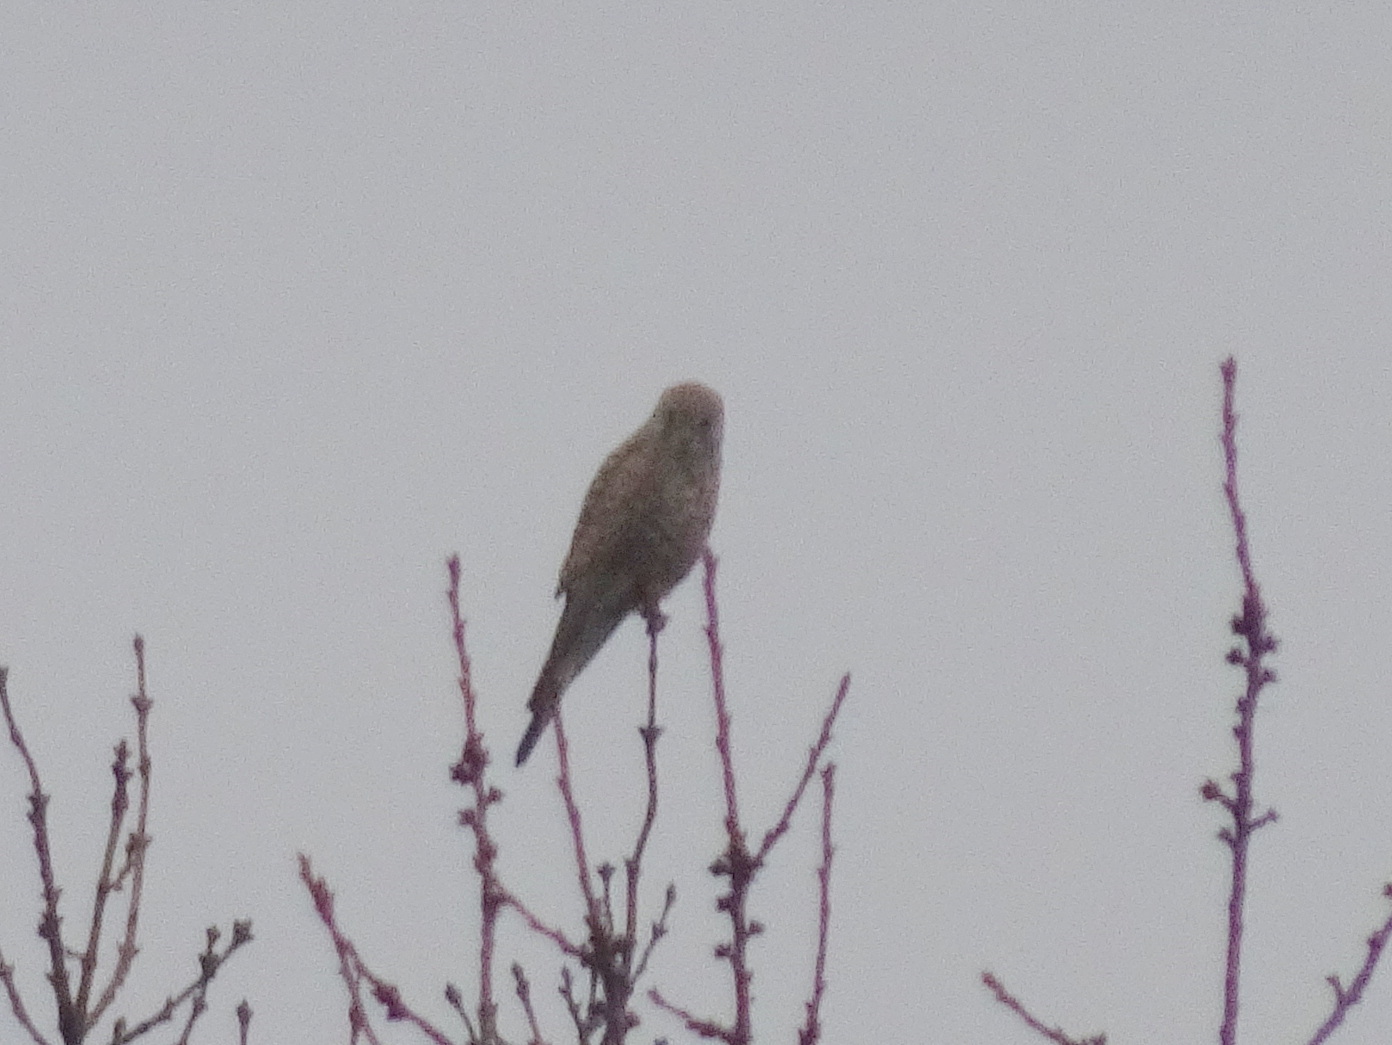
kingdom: Animalia
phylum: Chordata
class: Aves
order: Falconiformes
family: Falconidae
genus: Falco
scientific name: Falco tinnunculus
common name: Common kestrel
